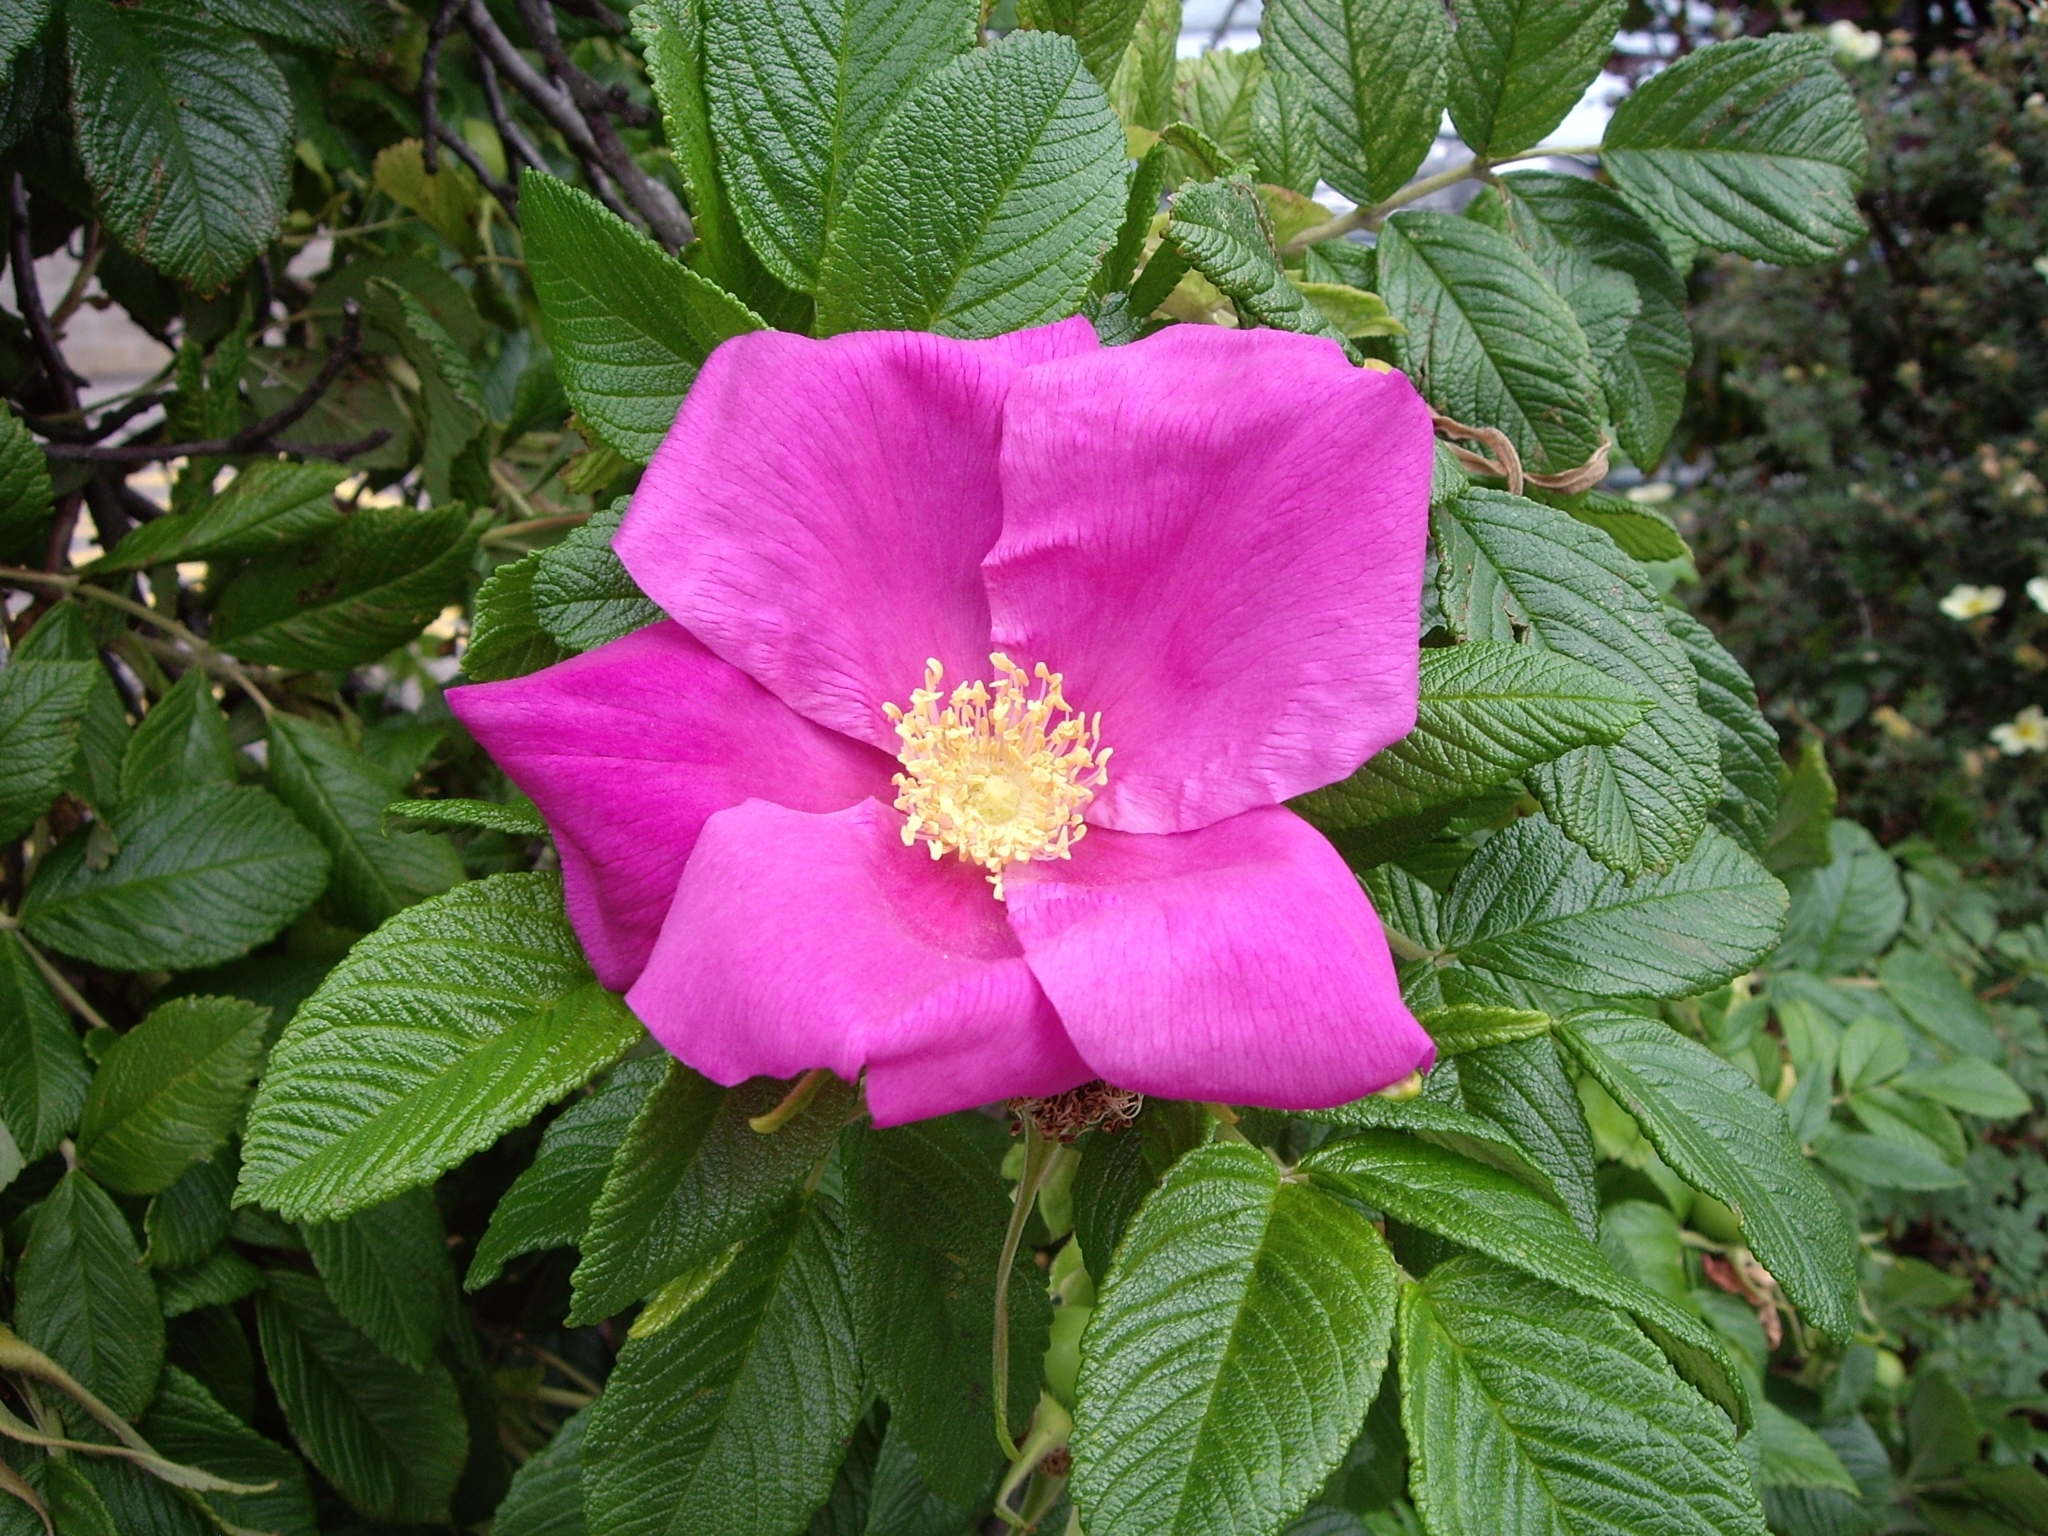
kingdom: Plantae
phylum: Tracheophyta
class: Magnoliopsida
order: Rosales
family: Rosaceae
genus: Rosa
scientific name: Rosa rugosa
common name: Japanese rose
